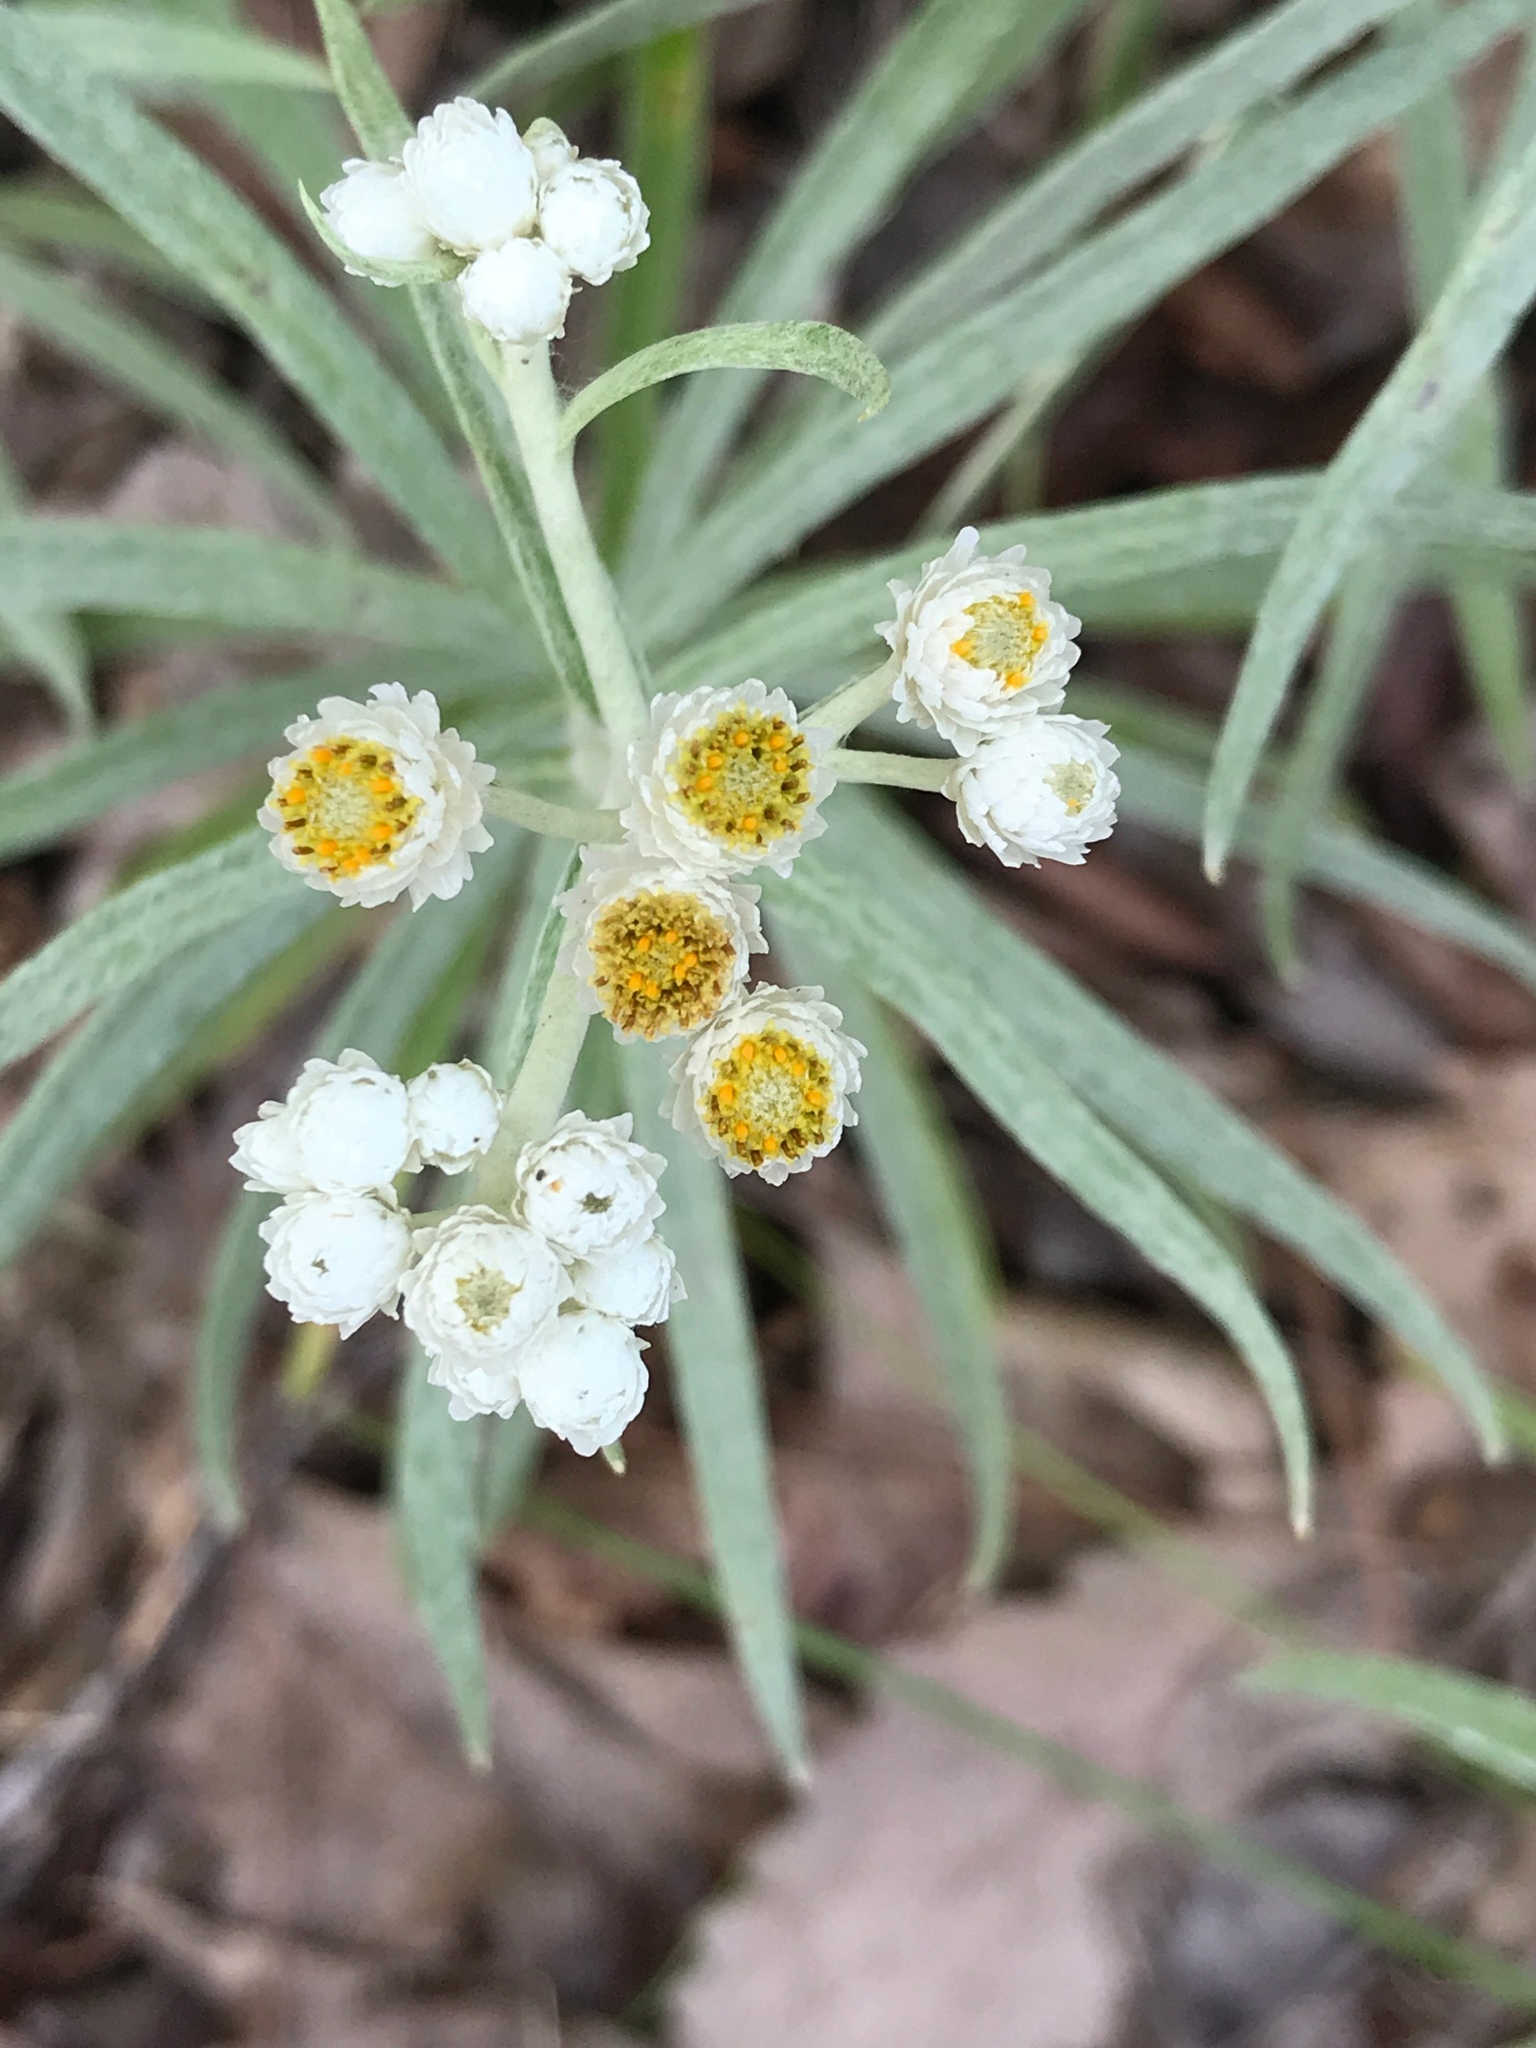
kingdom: Plantae
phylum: Tracheophyta
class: Magnoliopsida
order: Asterales
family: Asteraceae
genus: Anaphalis
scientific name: Anaphalis margaritacea
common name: Pearly everlasting
